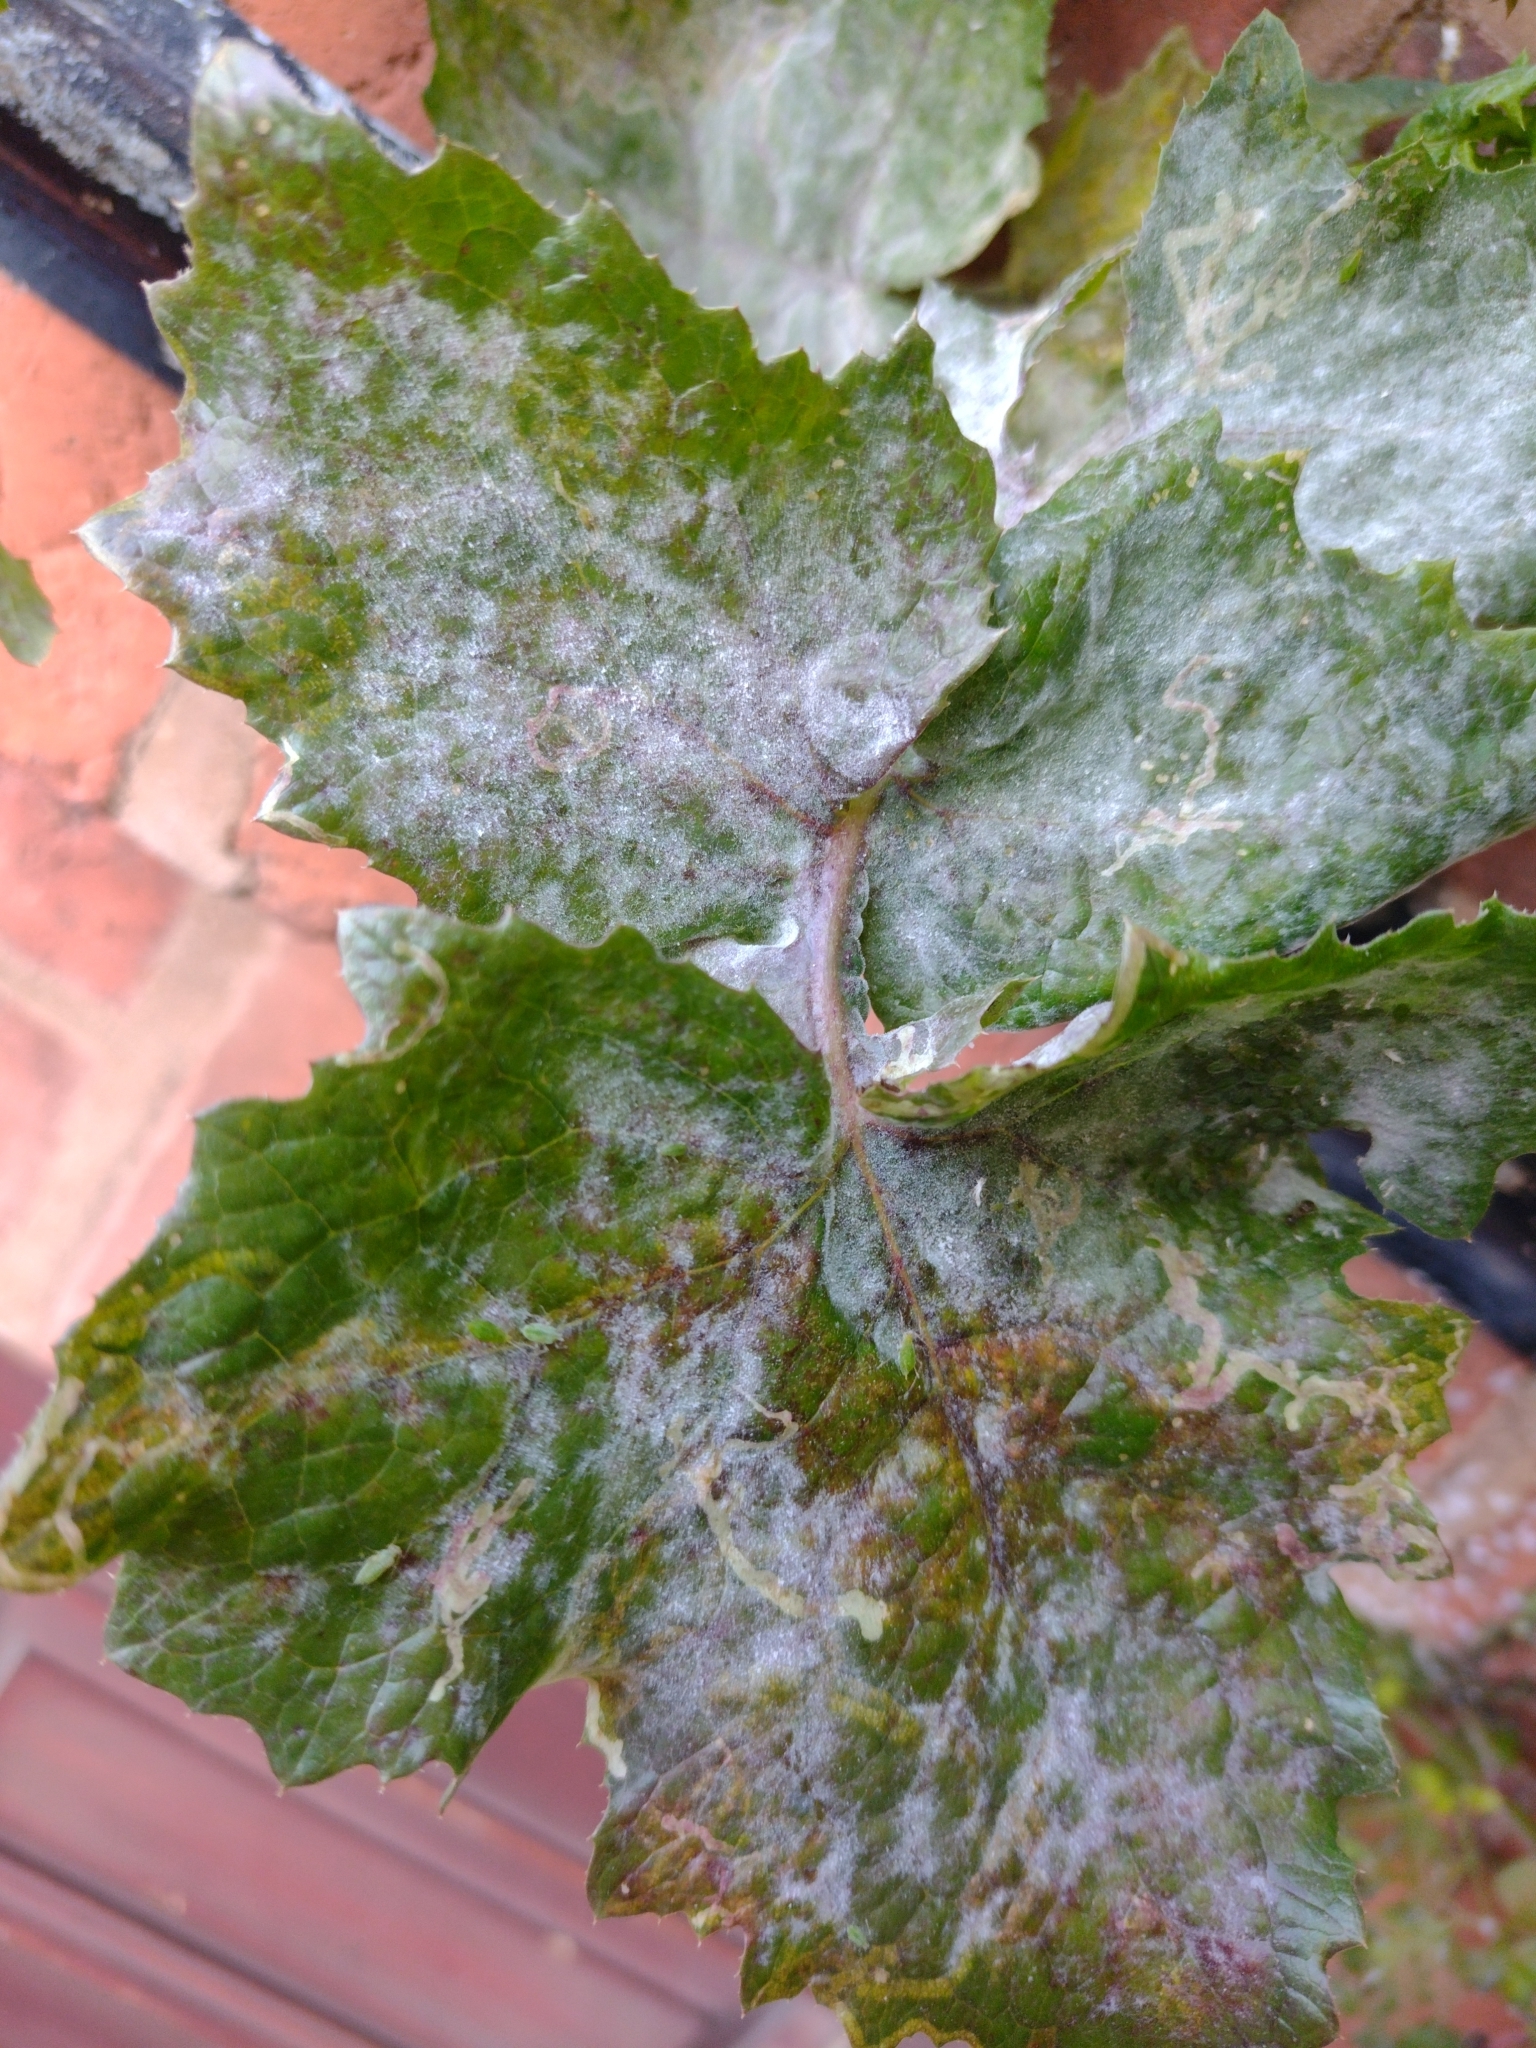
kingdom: Fungi
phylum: Ascomycota
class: Leotiomycetes
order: Helotiales
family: Erysiphaceae
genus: Erysiphe
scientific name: Erysiphe heraclei
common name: Umbellifer mildew
